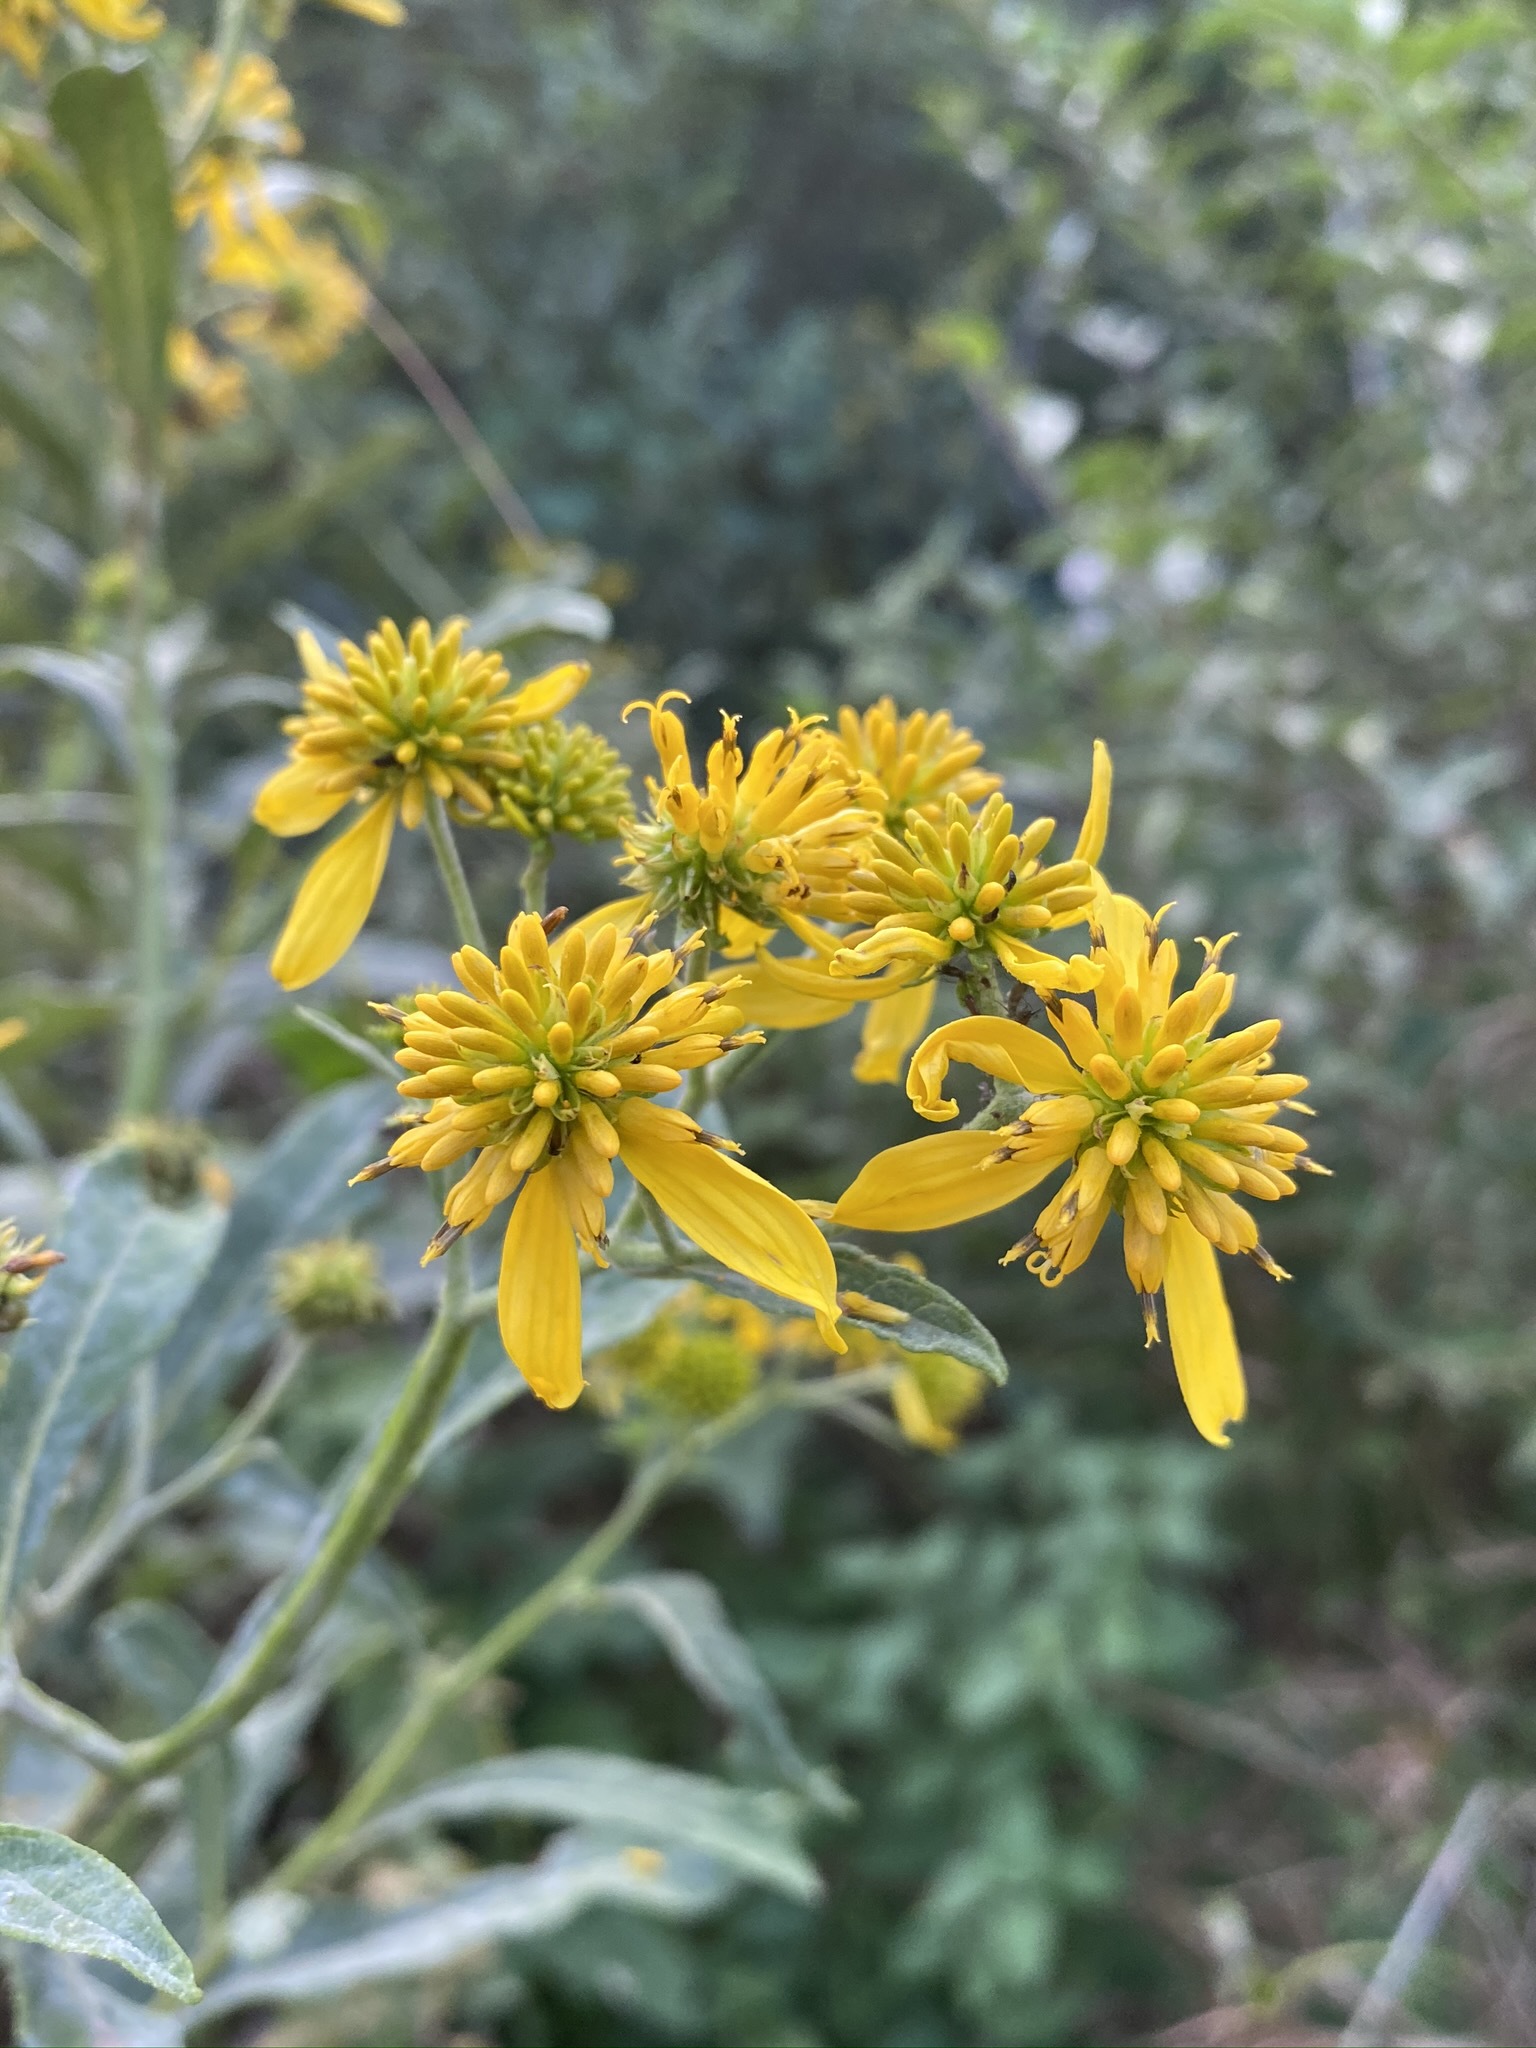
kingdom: Plantae
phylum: Tracheophyta
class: Magnoliopsida
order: Asterales
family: Asteraceae
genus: Verbesina
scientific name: Verbesina alternifolia
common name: Wingstem
